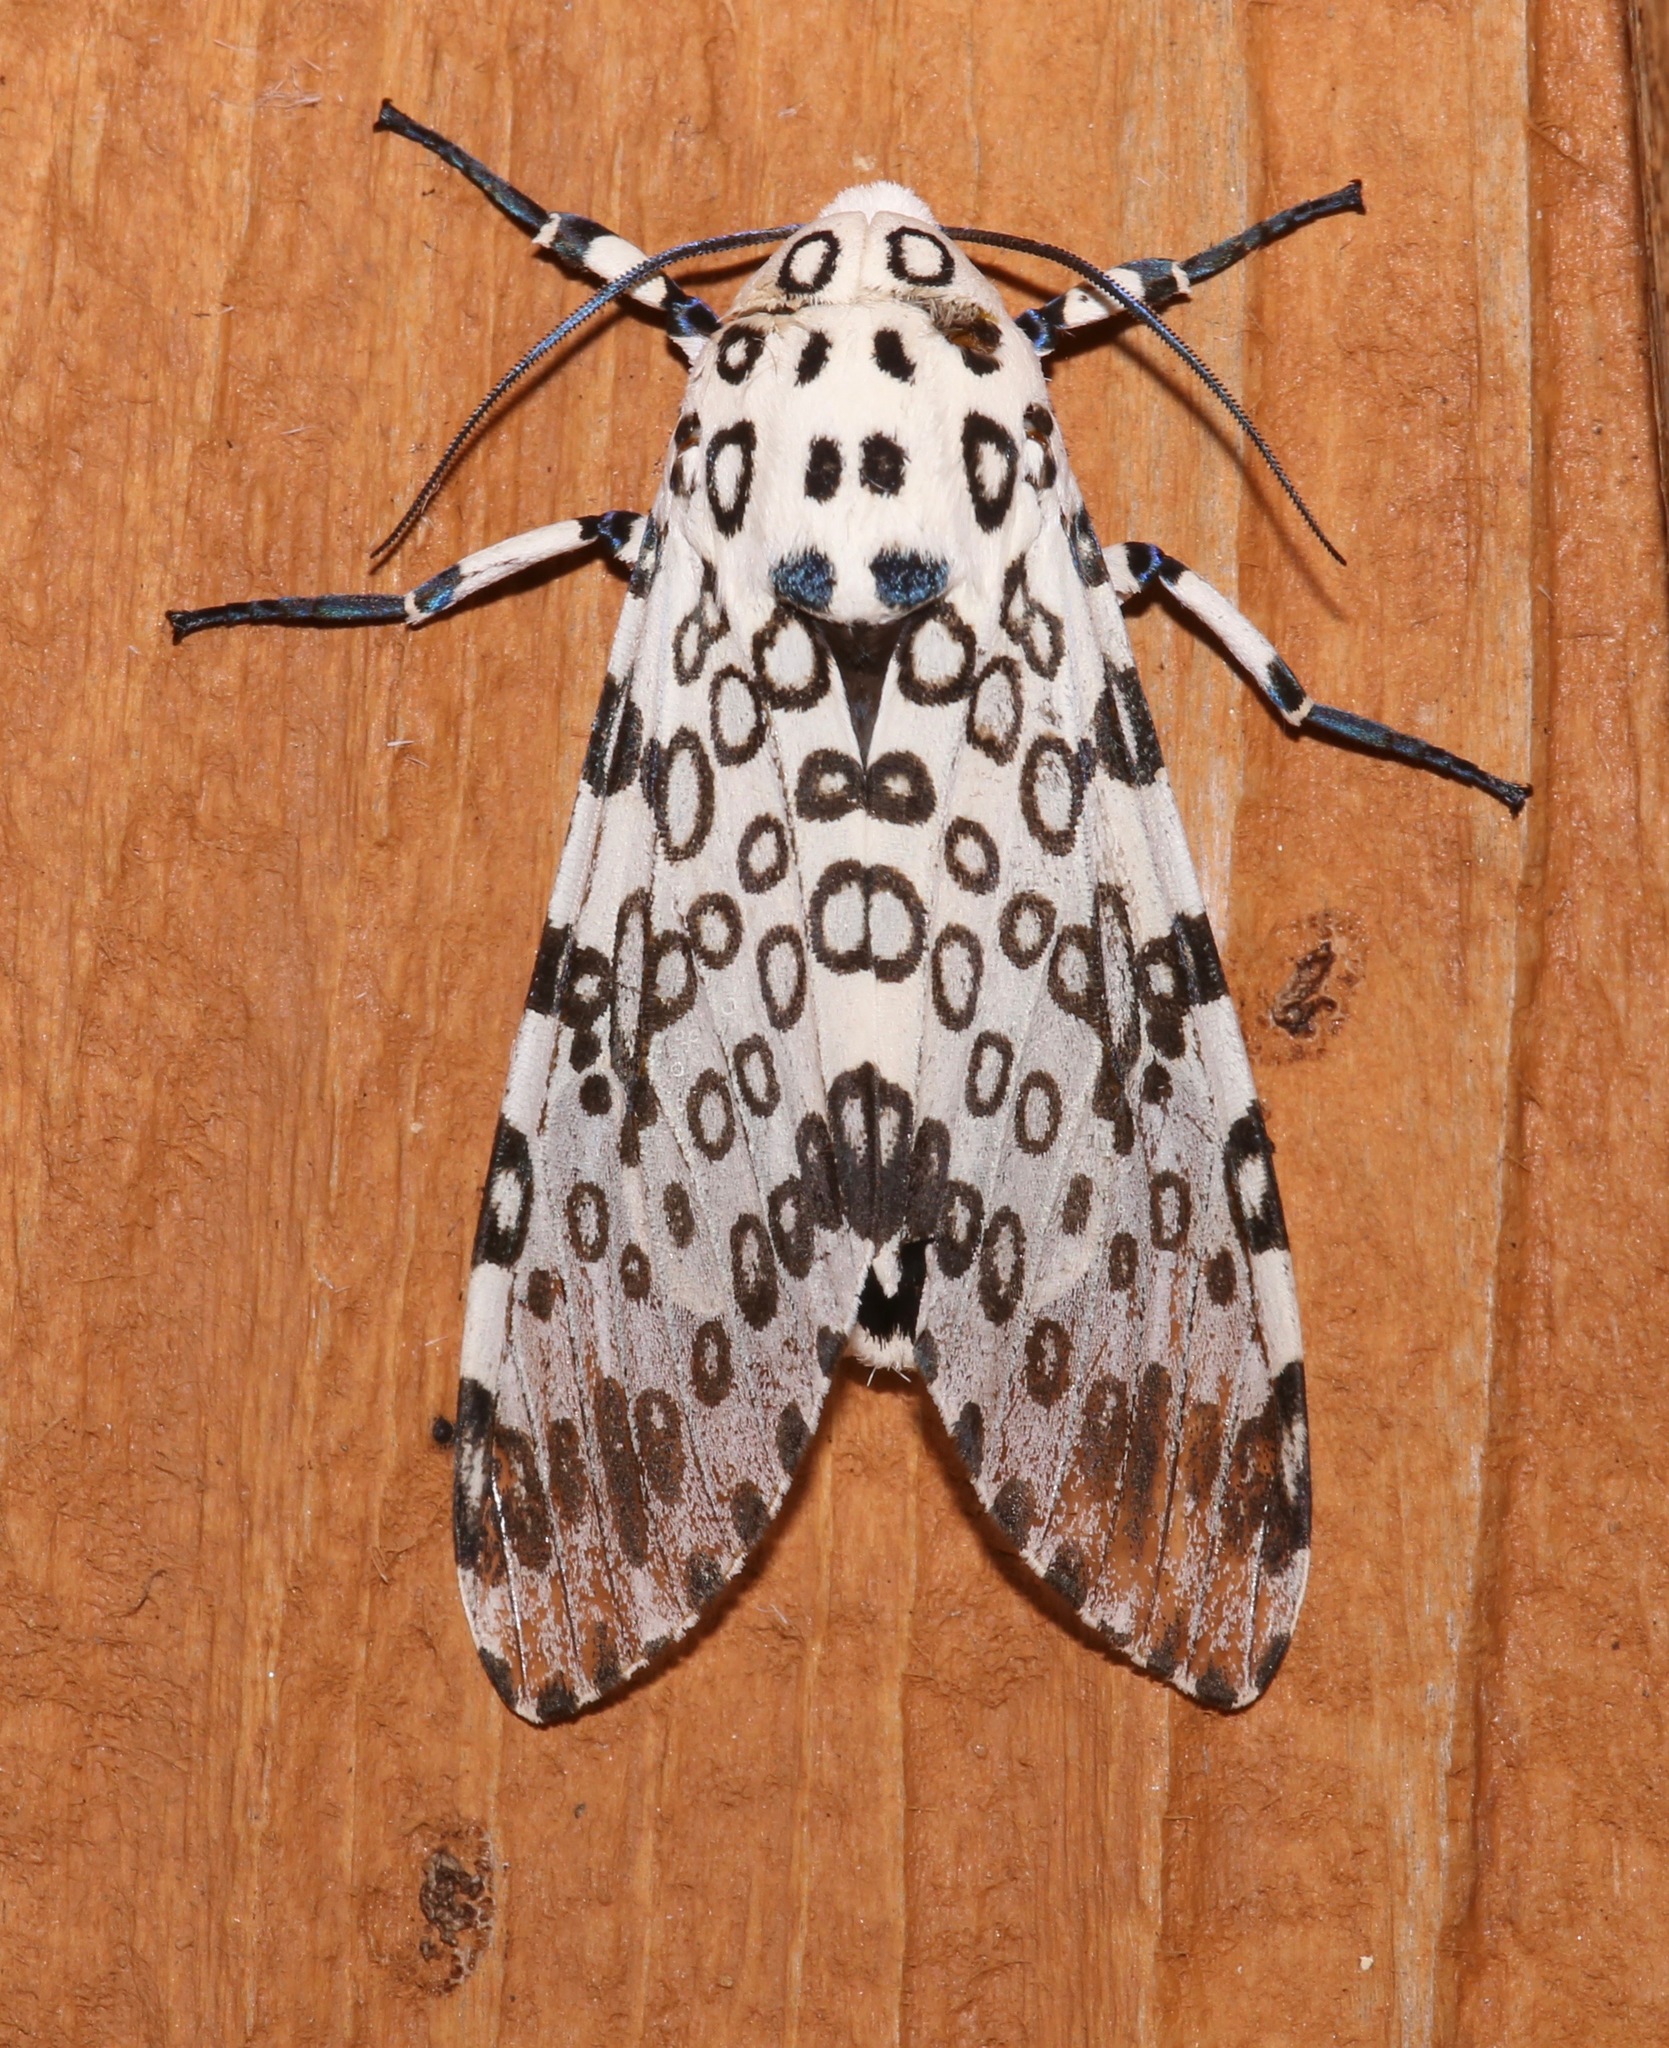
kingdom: Animalia
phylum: Arthropoda
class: Insecta
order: Lepidoptera
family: Erebidae
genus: Hypercompe
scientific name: Hypercompe scribonia
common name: Giant leopard moth
